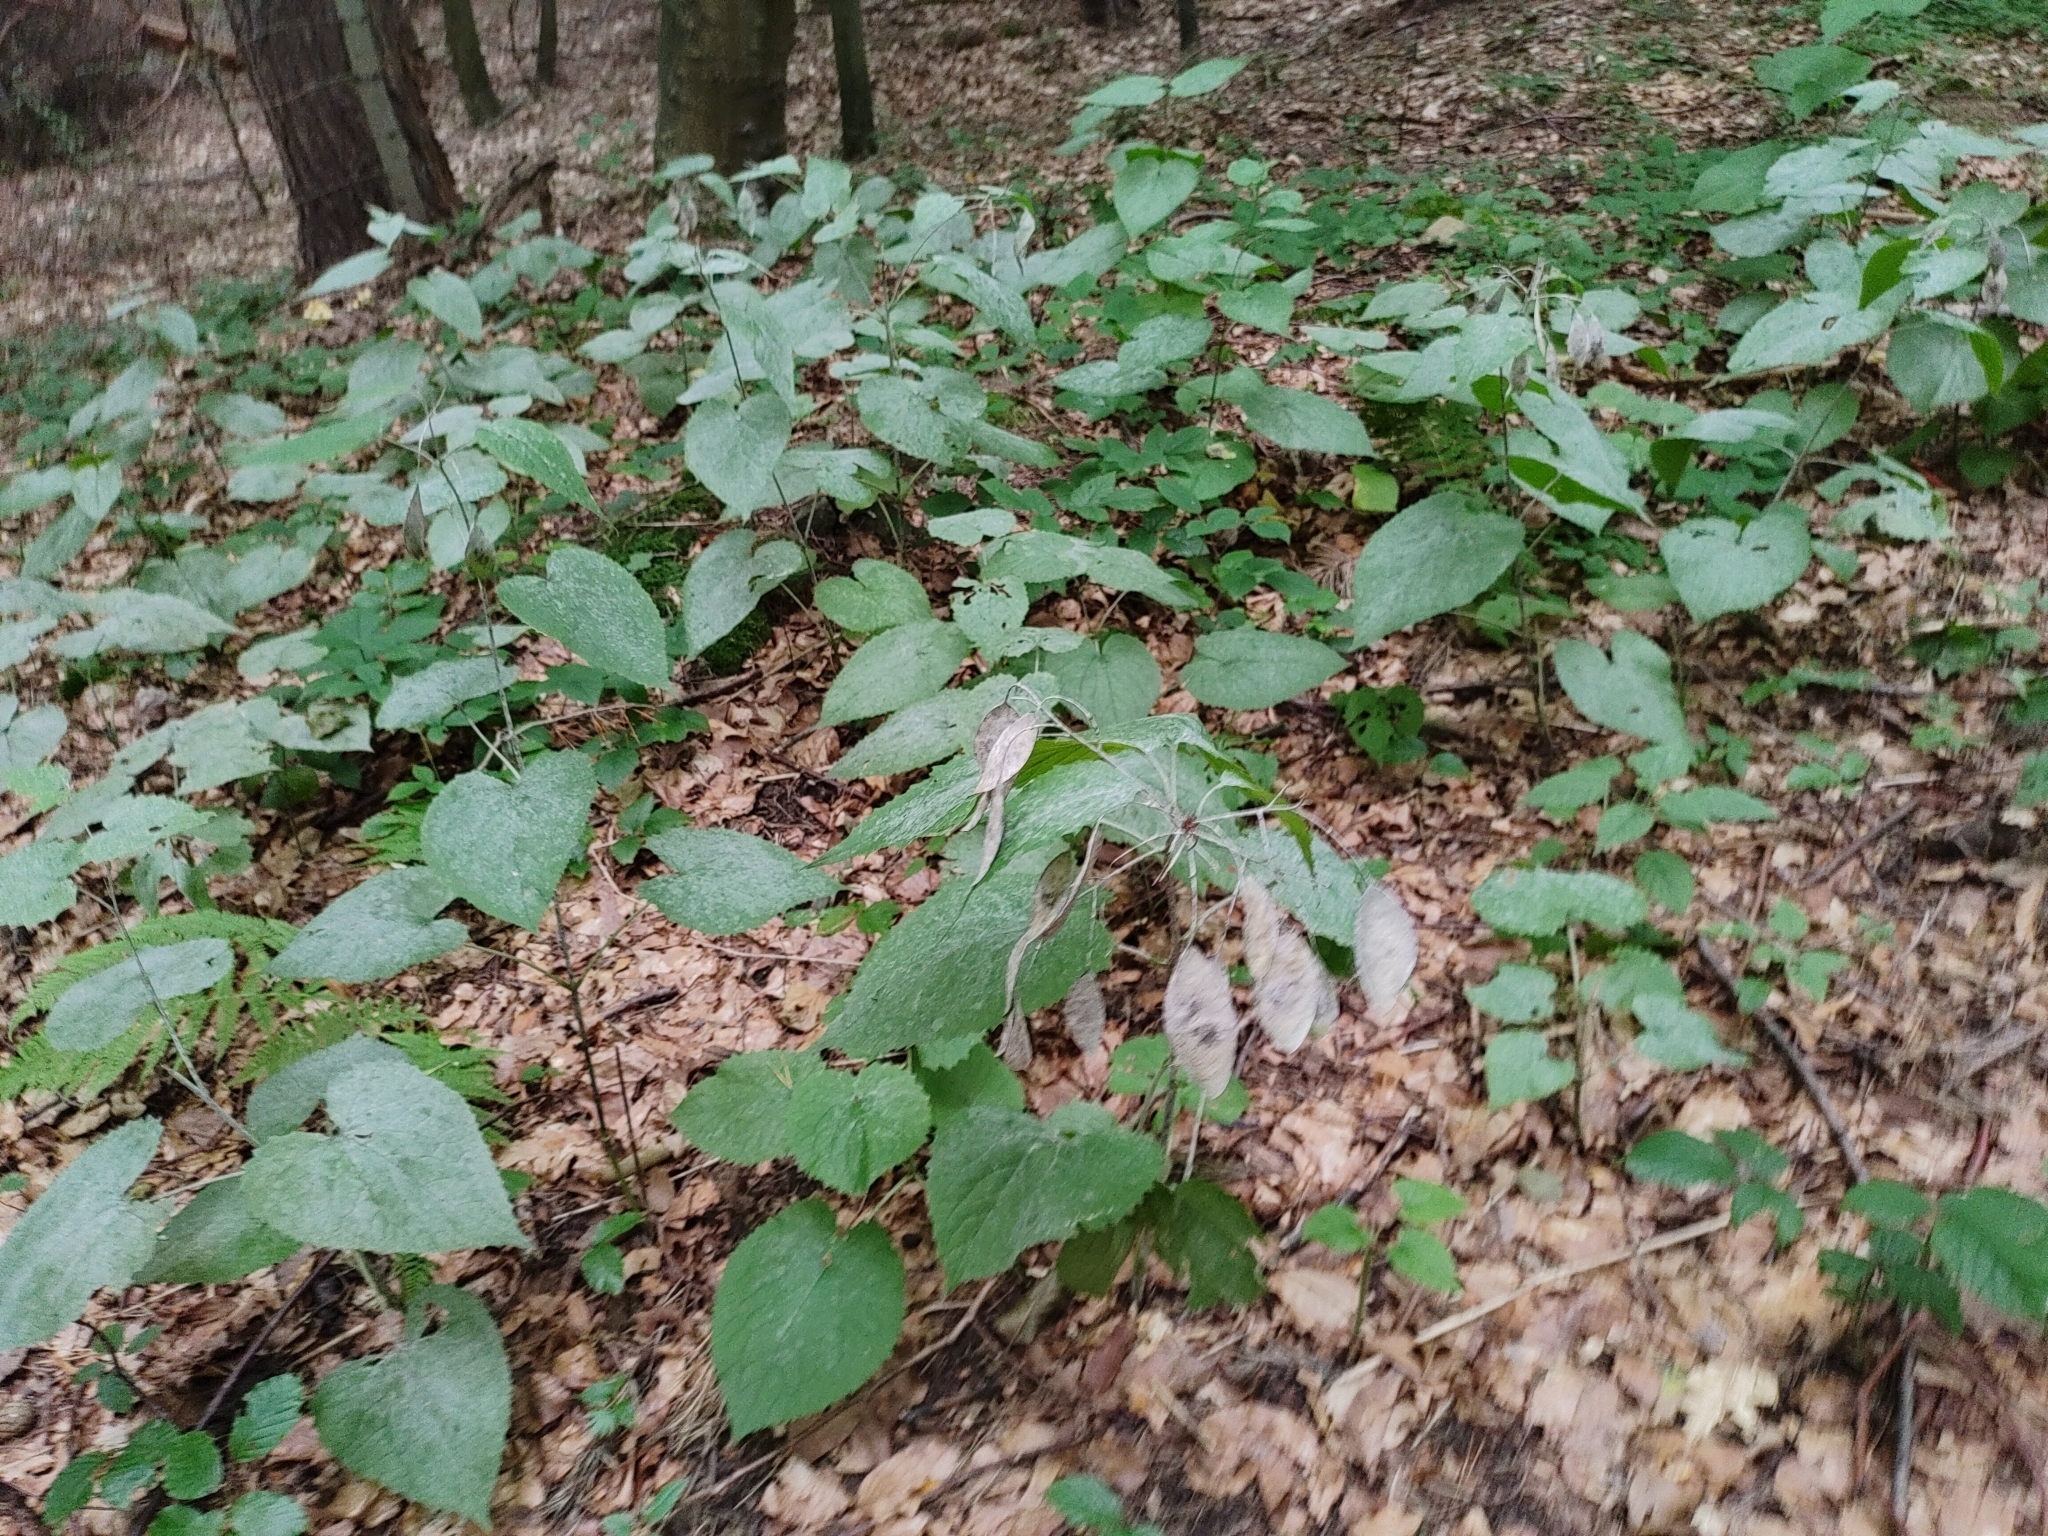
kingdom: Plantae
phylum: Tracheophyta
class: Magnoliopsida
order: Brassicales
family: Brassicaceae
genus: Lunaria
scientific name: Lunaria rediviva
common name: Perennial honesty
